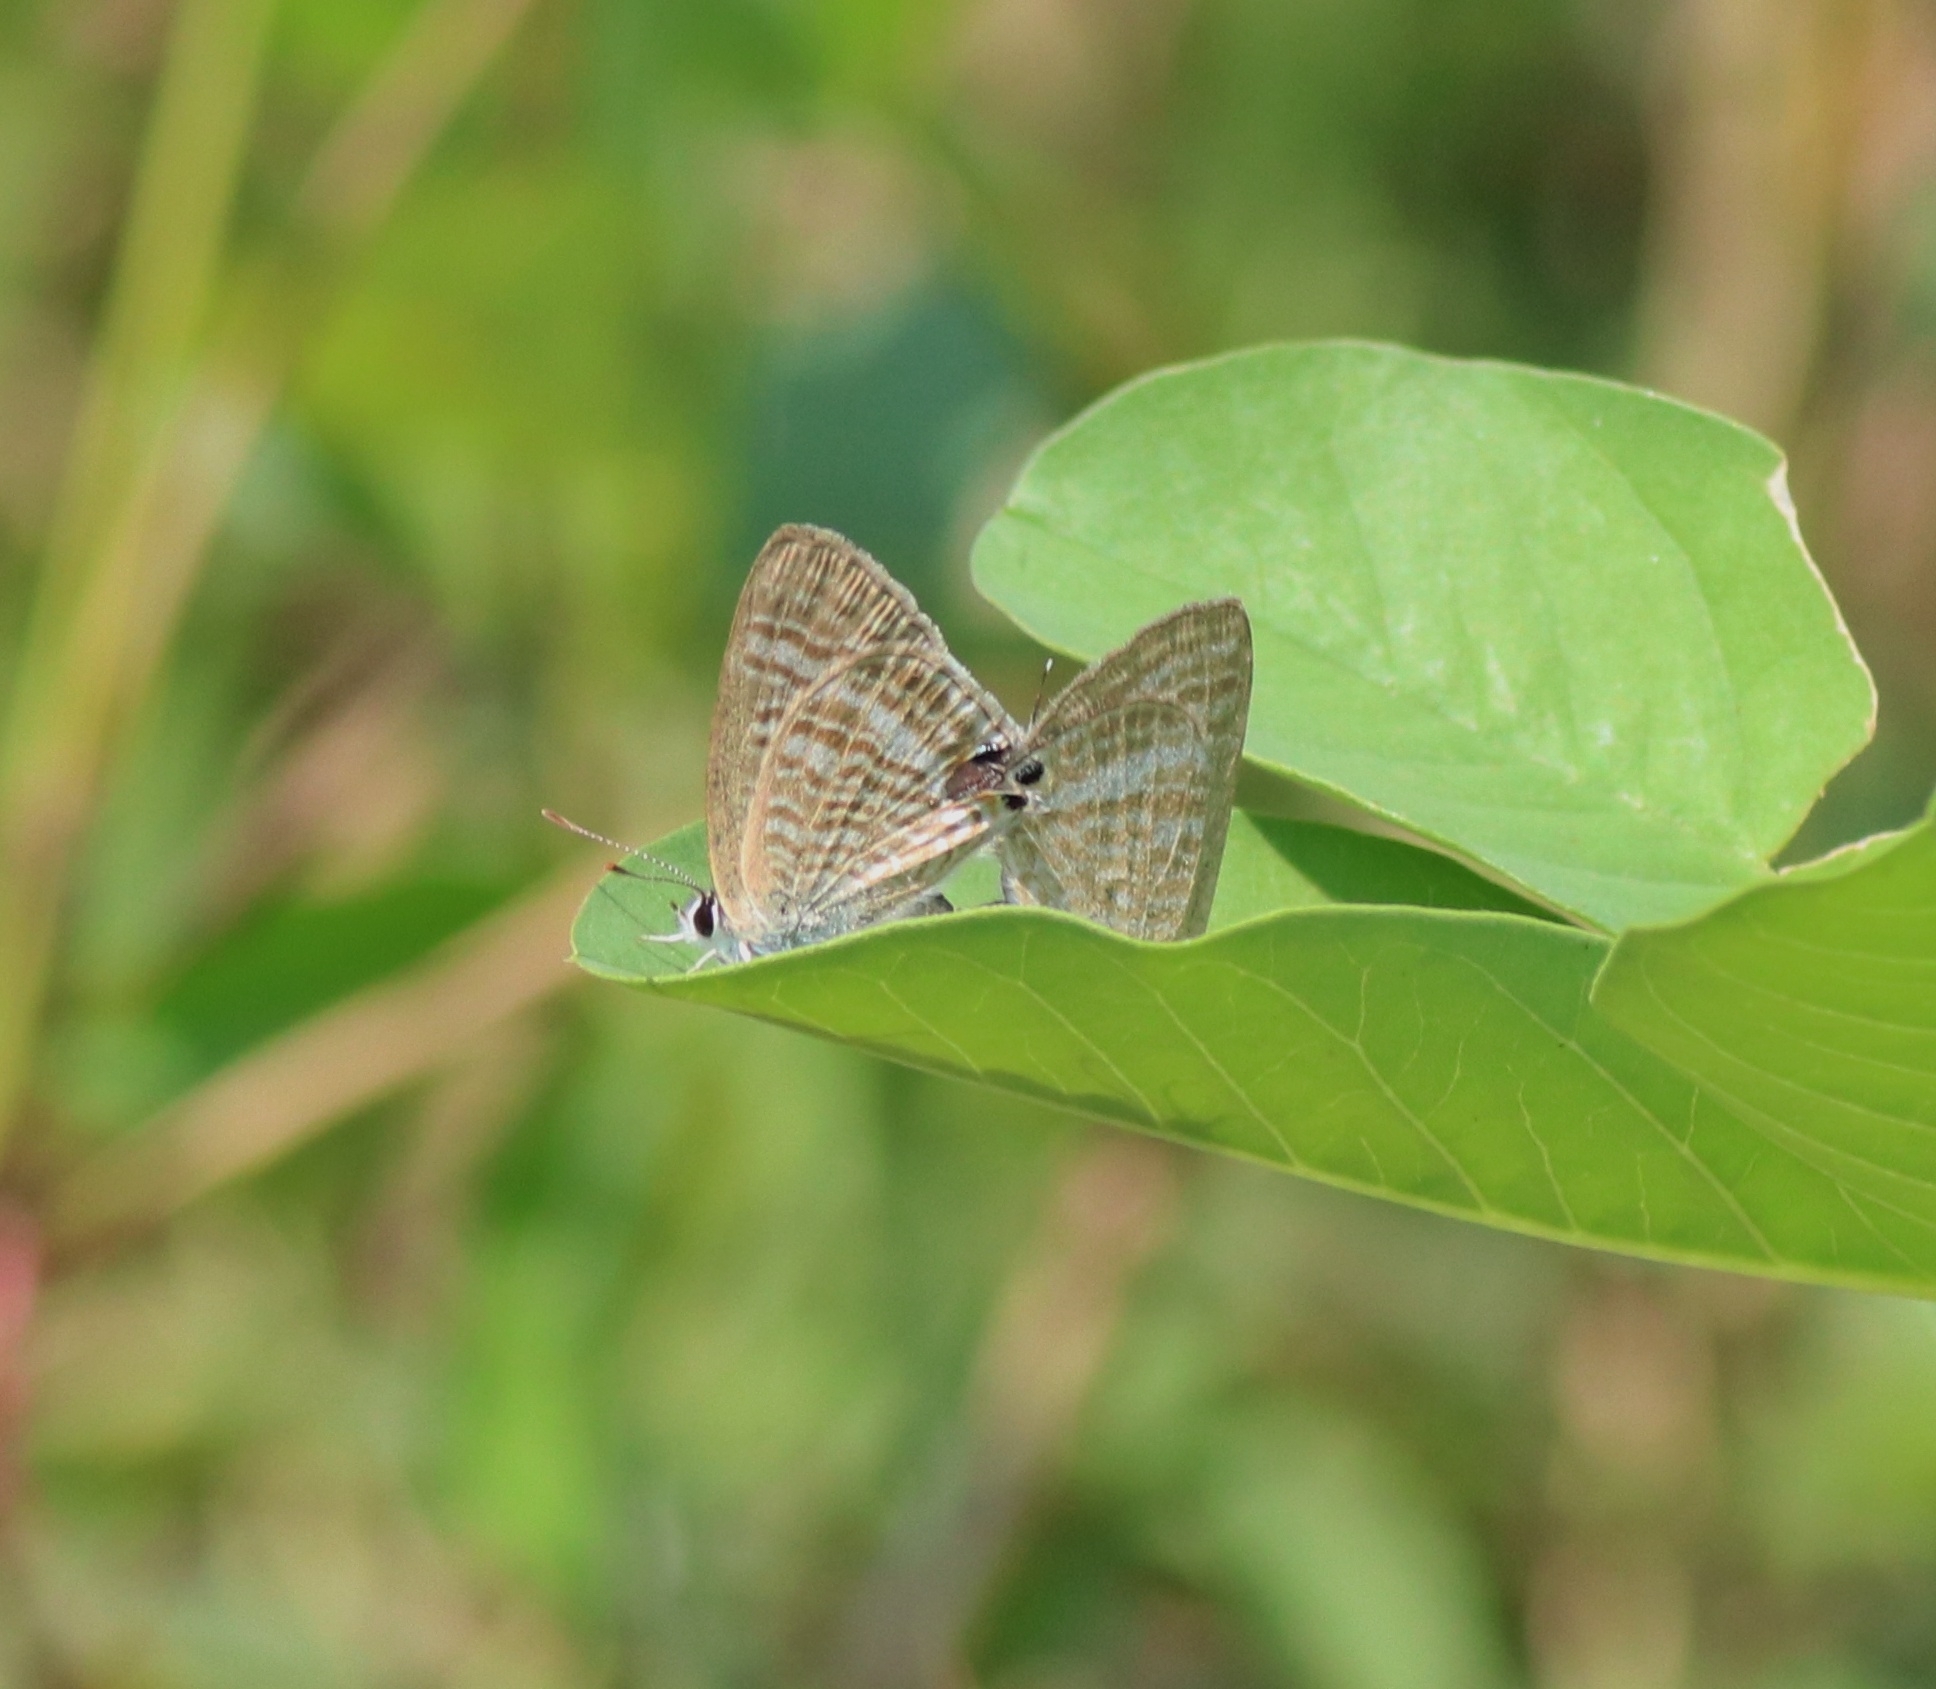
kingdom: Animalia
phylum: Arthropoda
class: Insecta
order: Lepidoptera
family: Lycaenidae
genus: Lampides
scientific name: Lampides boeticus
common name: Long-tailed blue
